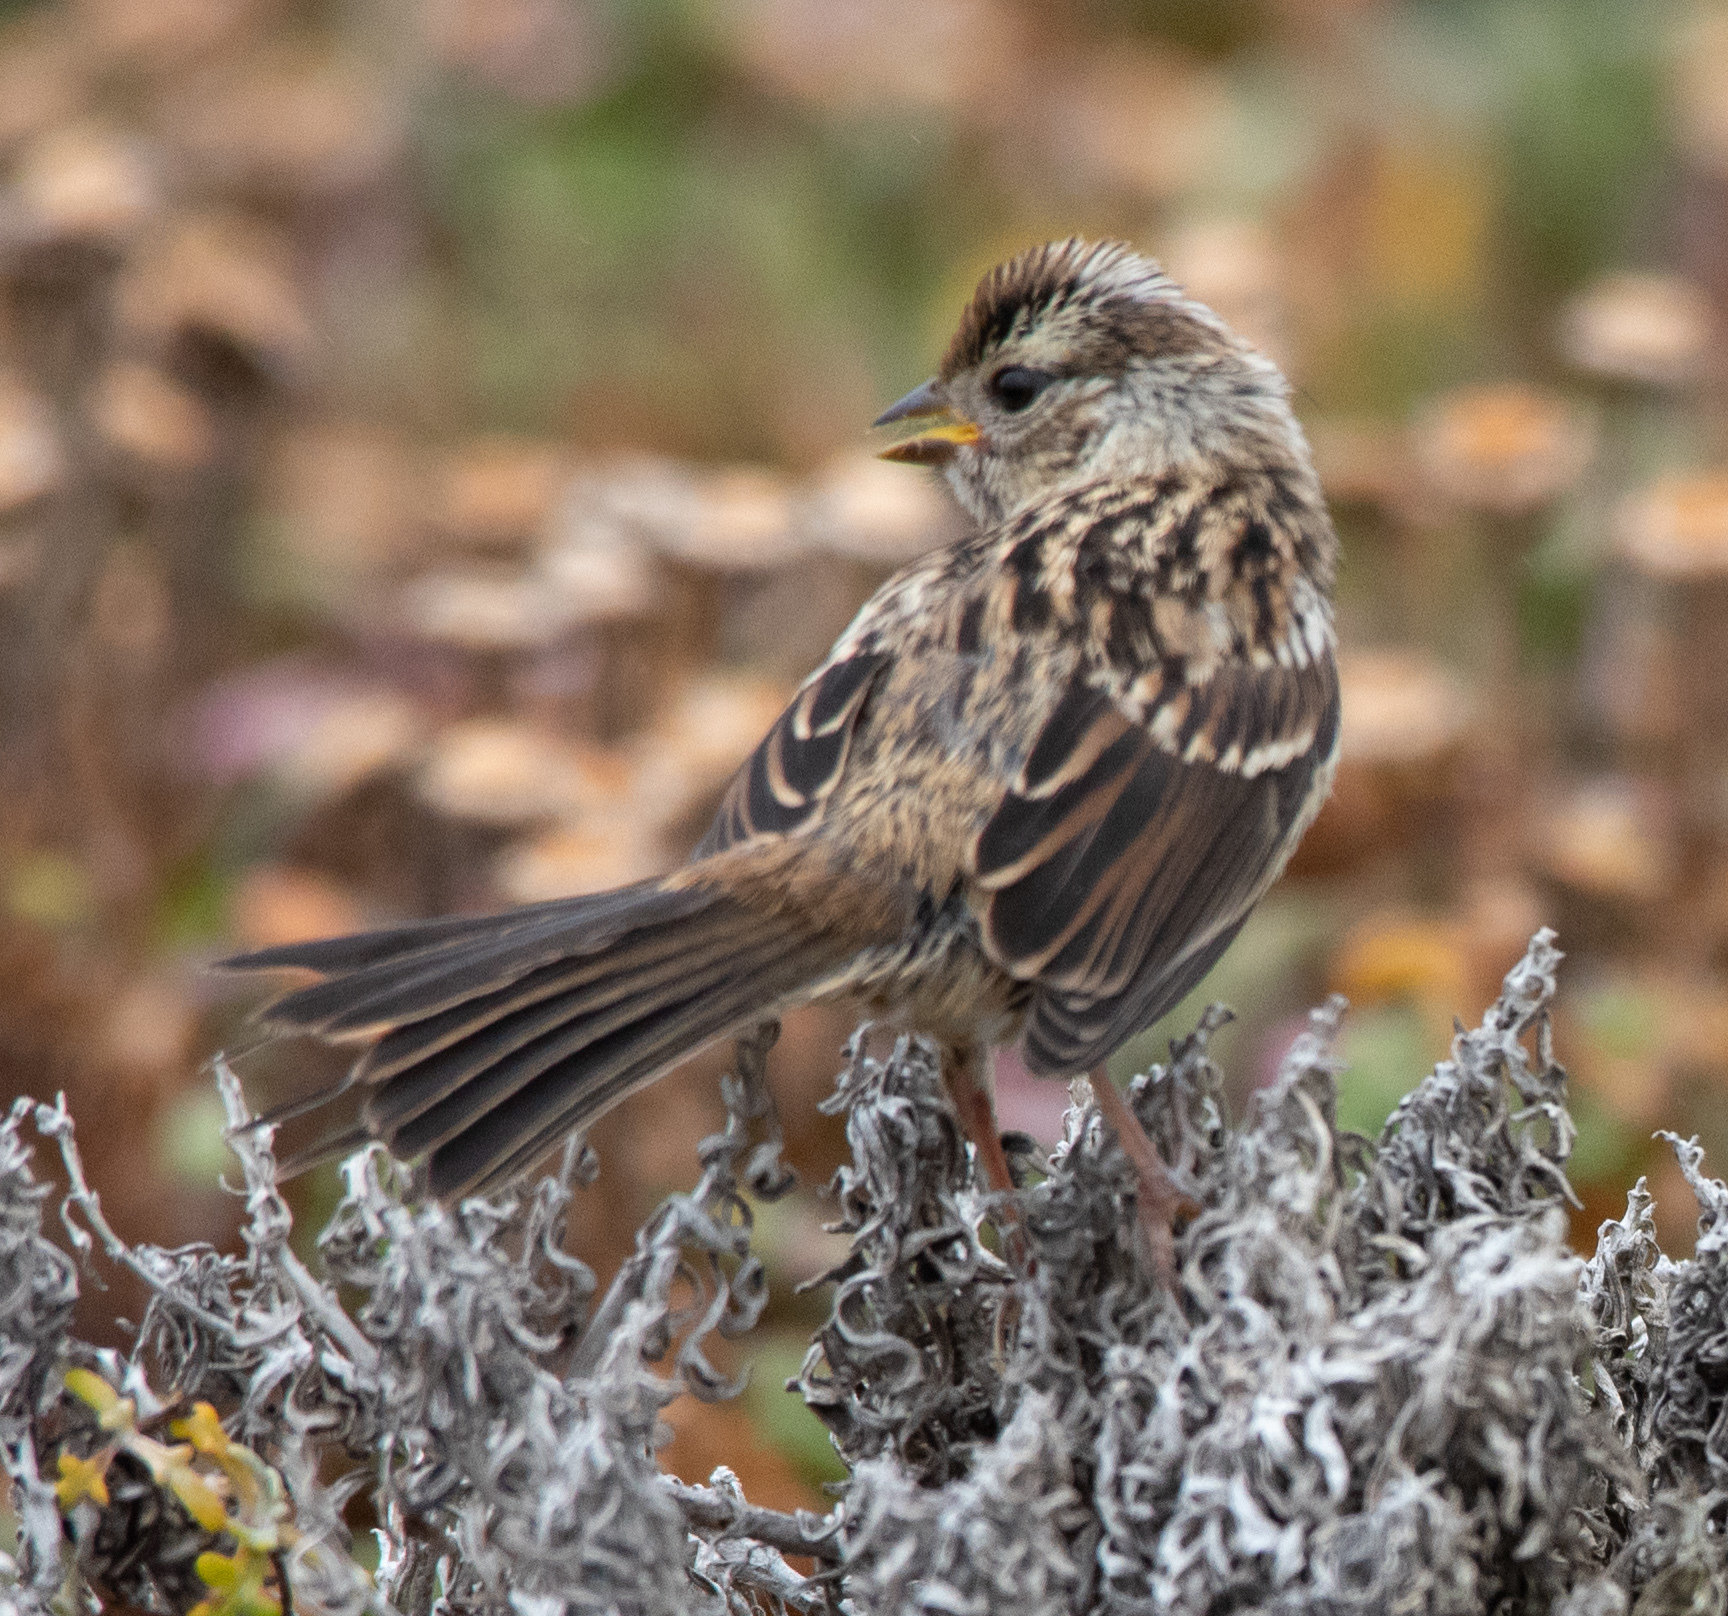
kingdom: Animalia
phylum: Chordata
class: Aves
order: Passeriformes
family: Passerellidae
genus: Zonotrichia
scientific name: Zonotrichia leucophrys
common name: White-crowned sparrow
